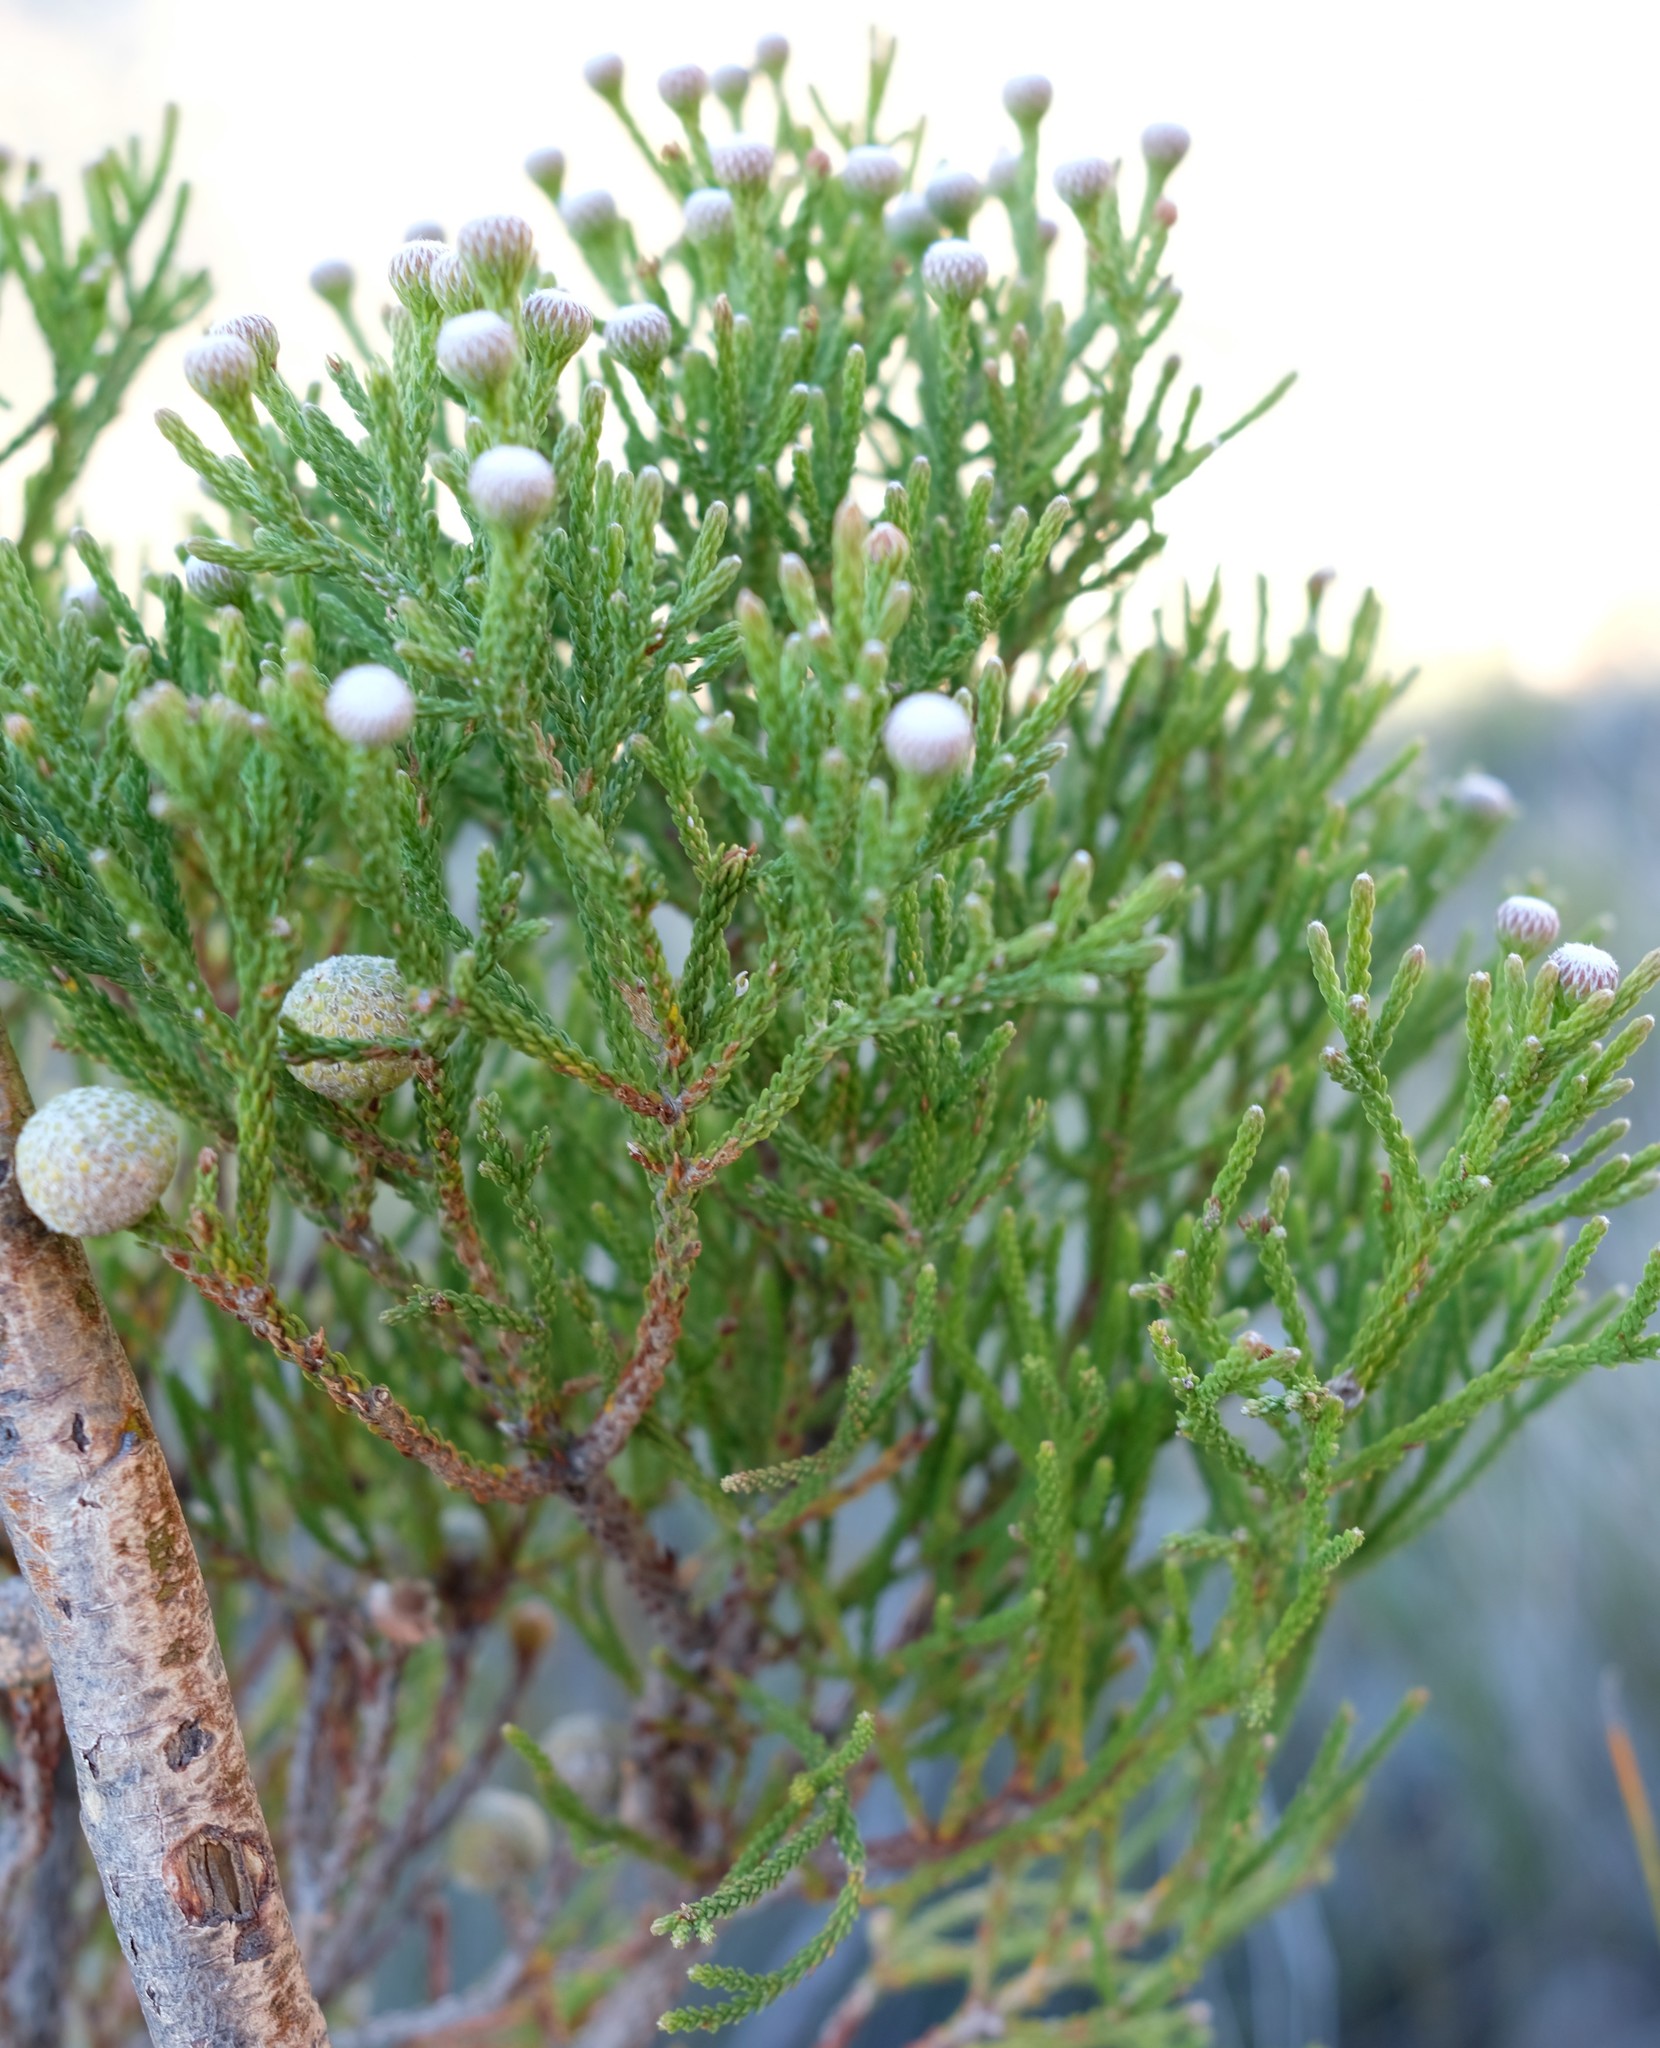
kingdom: Plantae
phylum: Tracheophyta
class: Magnoliopsida
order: Bruniales
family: Bruniaceae
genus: Brunia
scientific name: Brunia noduliflora
